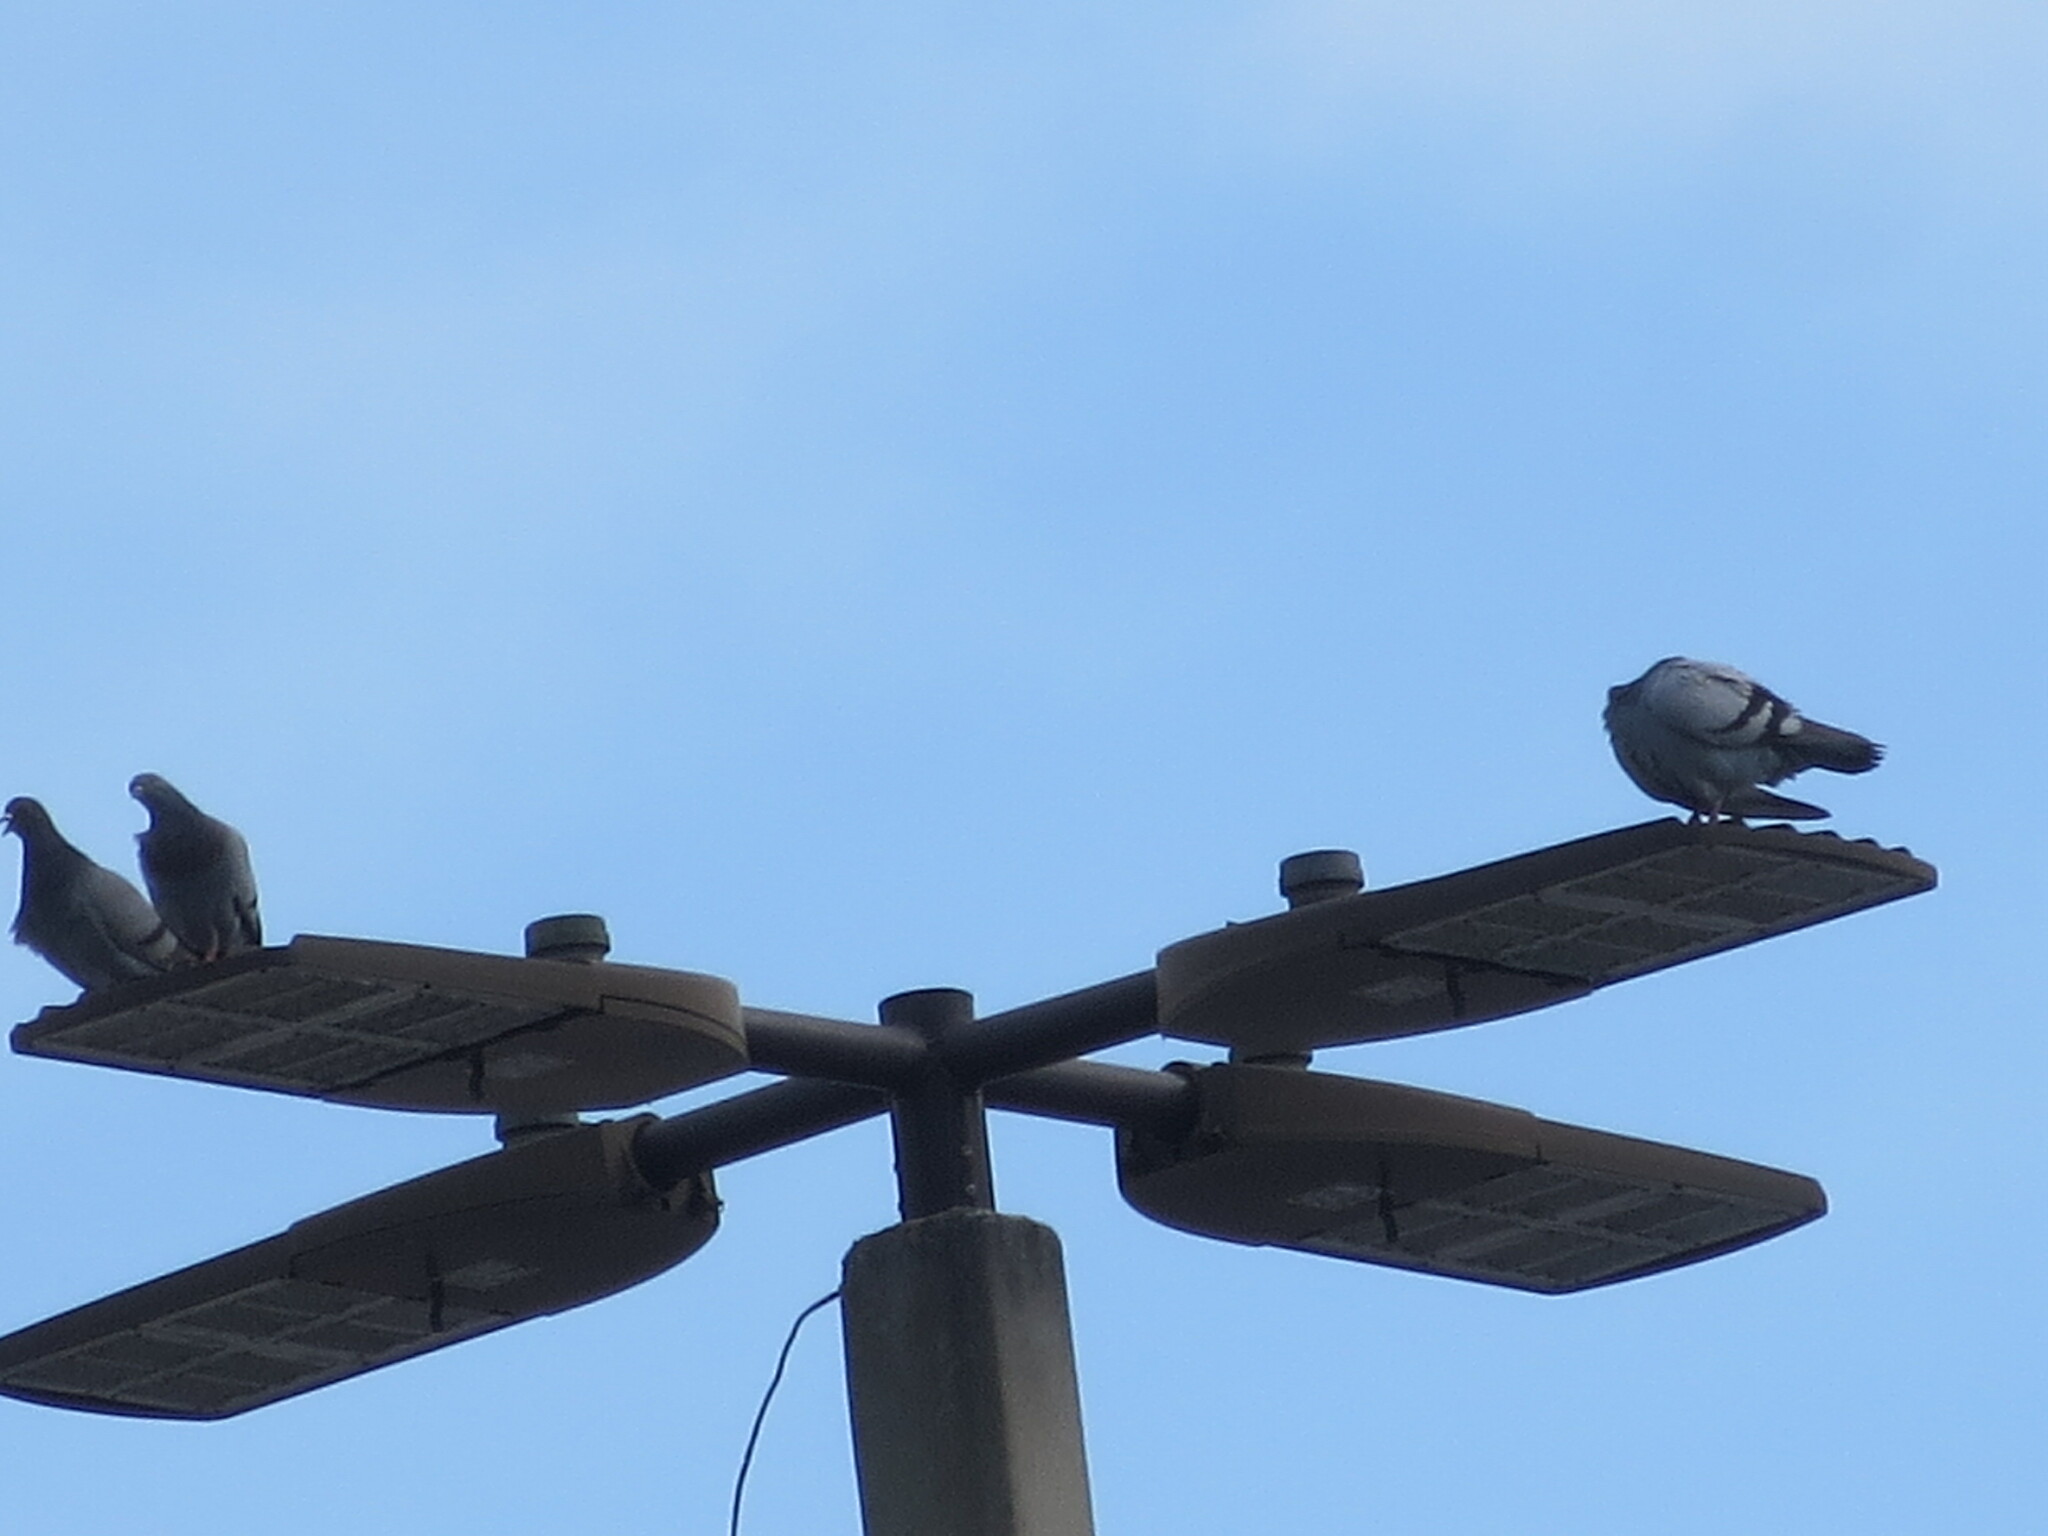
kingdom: Animalia
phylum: Chordata
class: Aves
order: Columbiformes
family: Columbidae
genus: Columba
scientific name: Columba livia
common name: Rock pigeon
